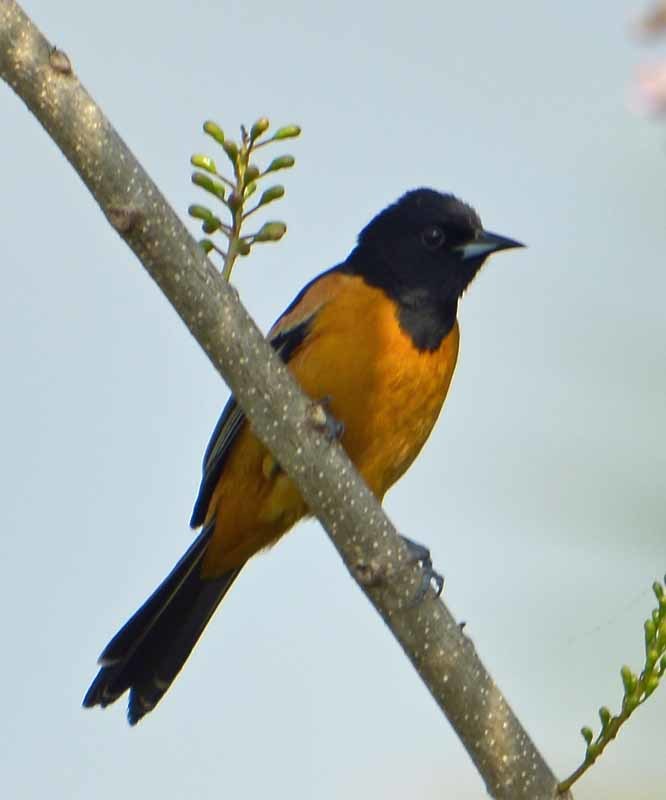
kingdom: Animalia
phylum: Chordata
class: Aves
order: Passeriformes
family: Icteridae
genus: Icterus
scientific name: Icterus galbula
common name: Baltimore oriole
